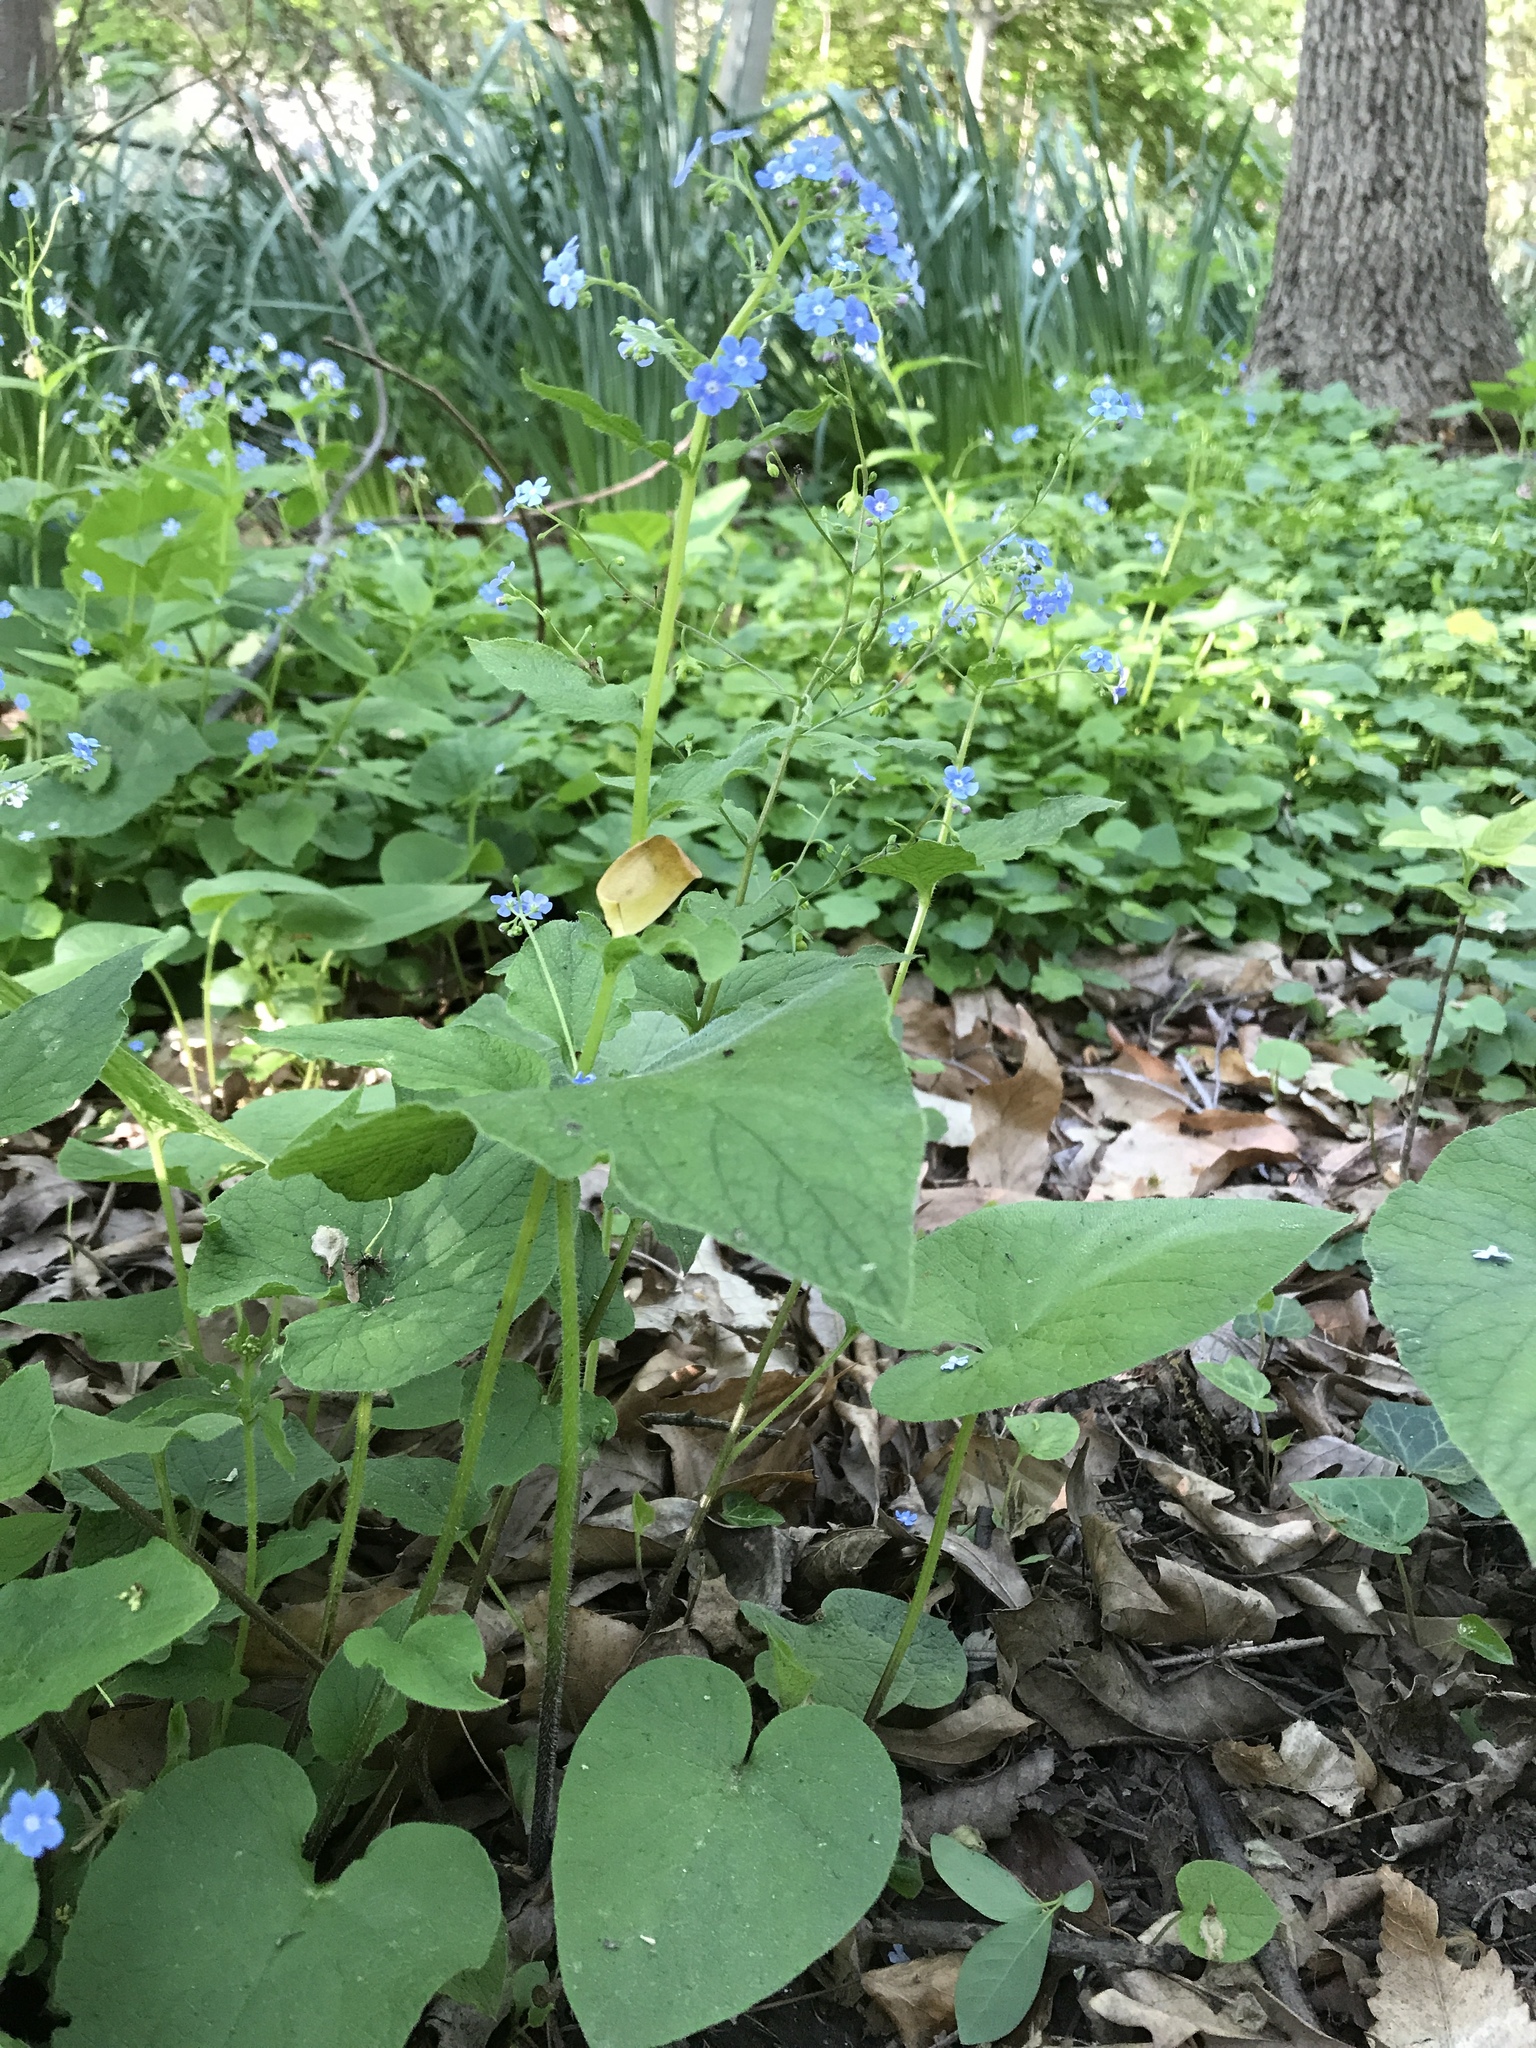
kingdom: Plantae
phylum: Tracheophyta
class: Magnoliopsida
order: Boraginales
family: Boraginaceae
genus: Brunnera
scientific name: Brunnera macrophylla
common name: Great forget-me-not
